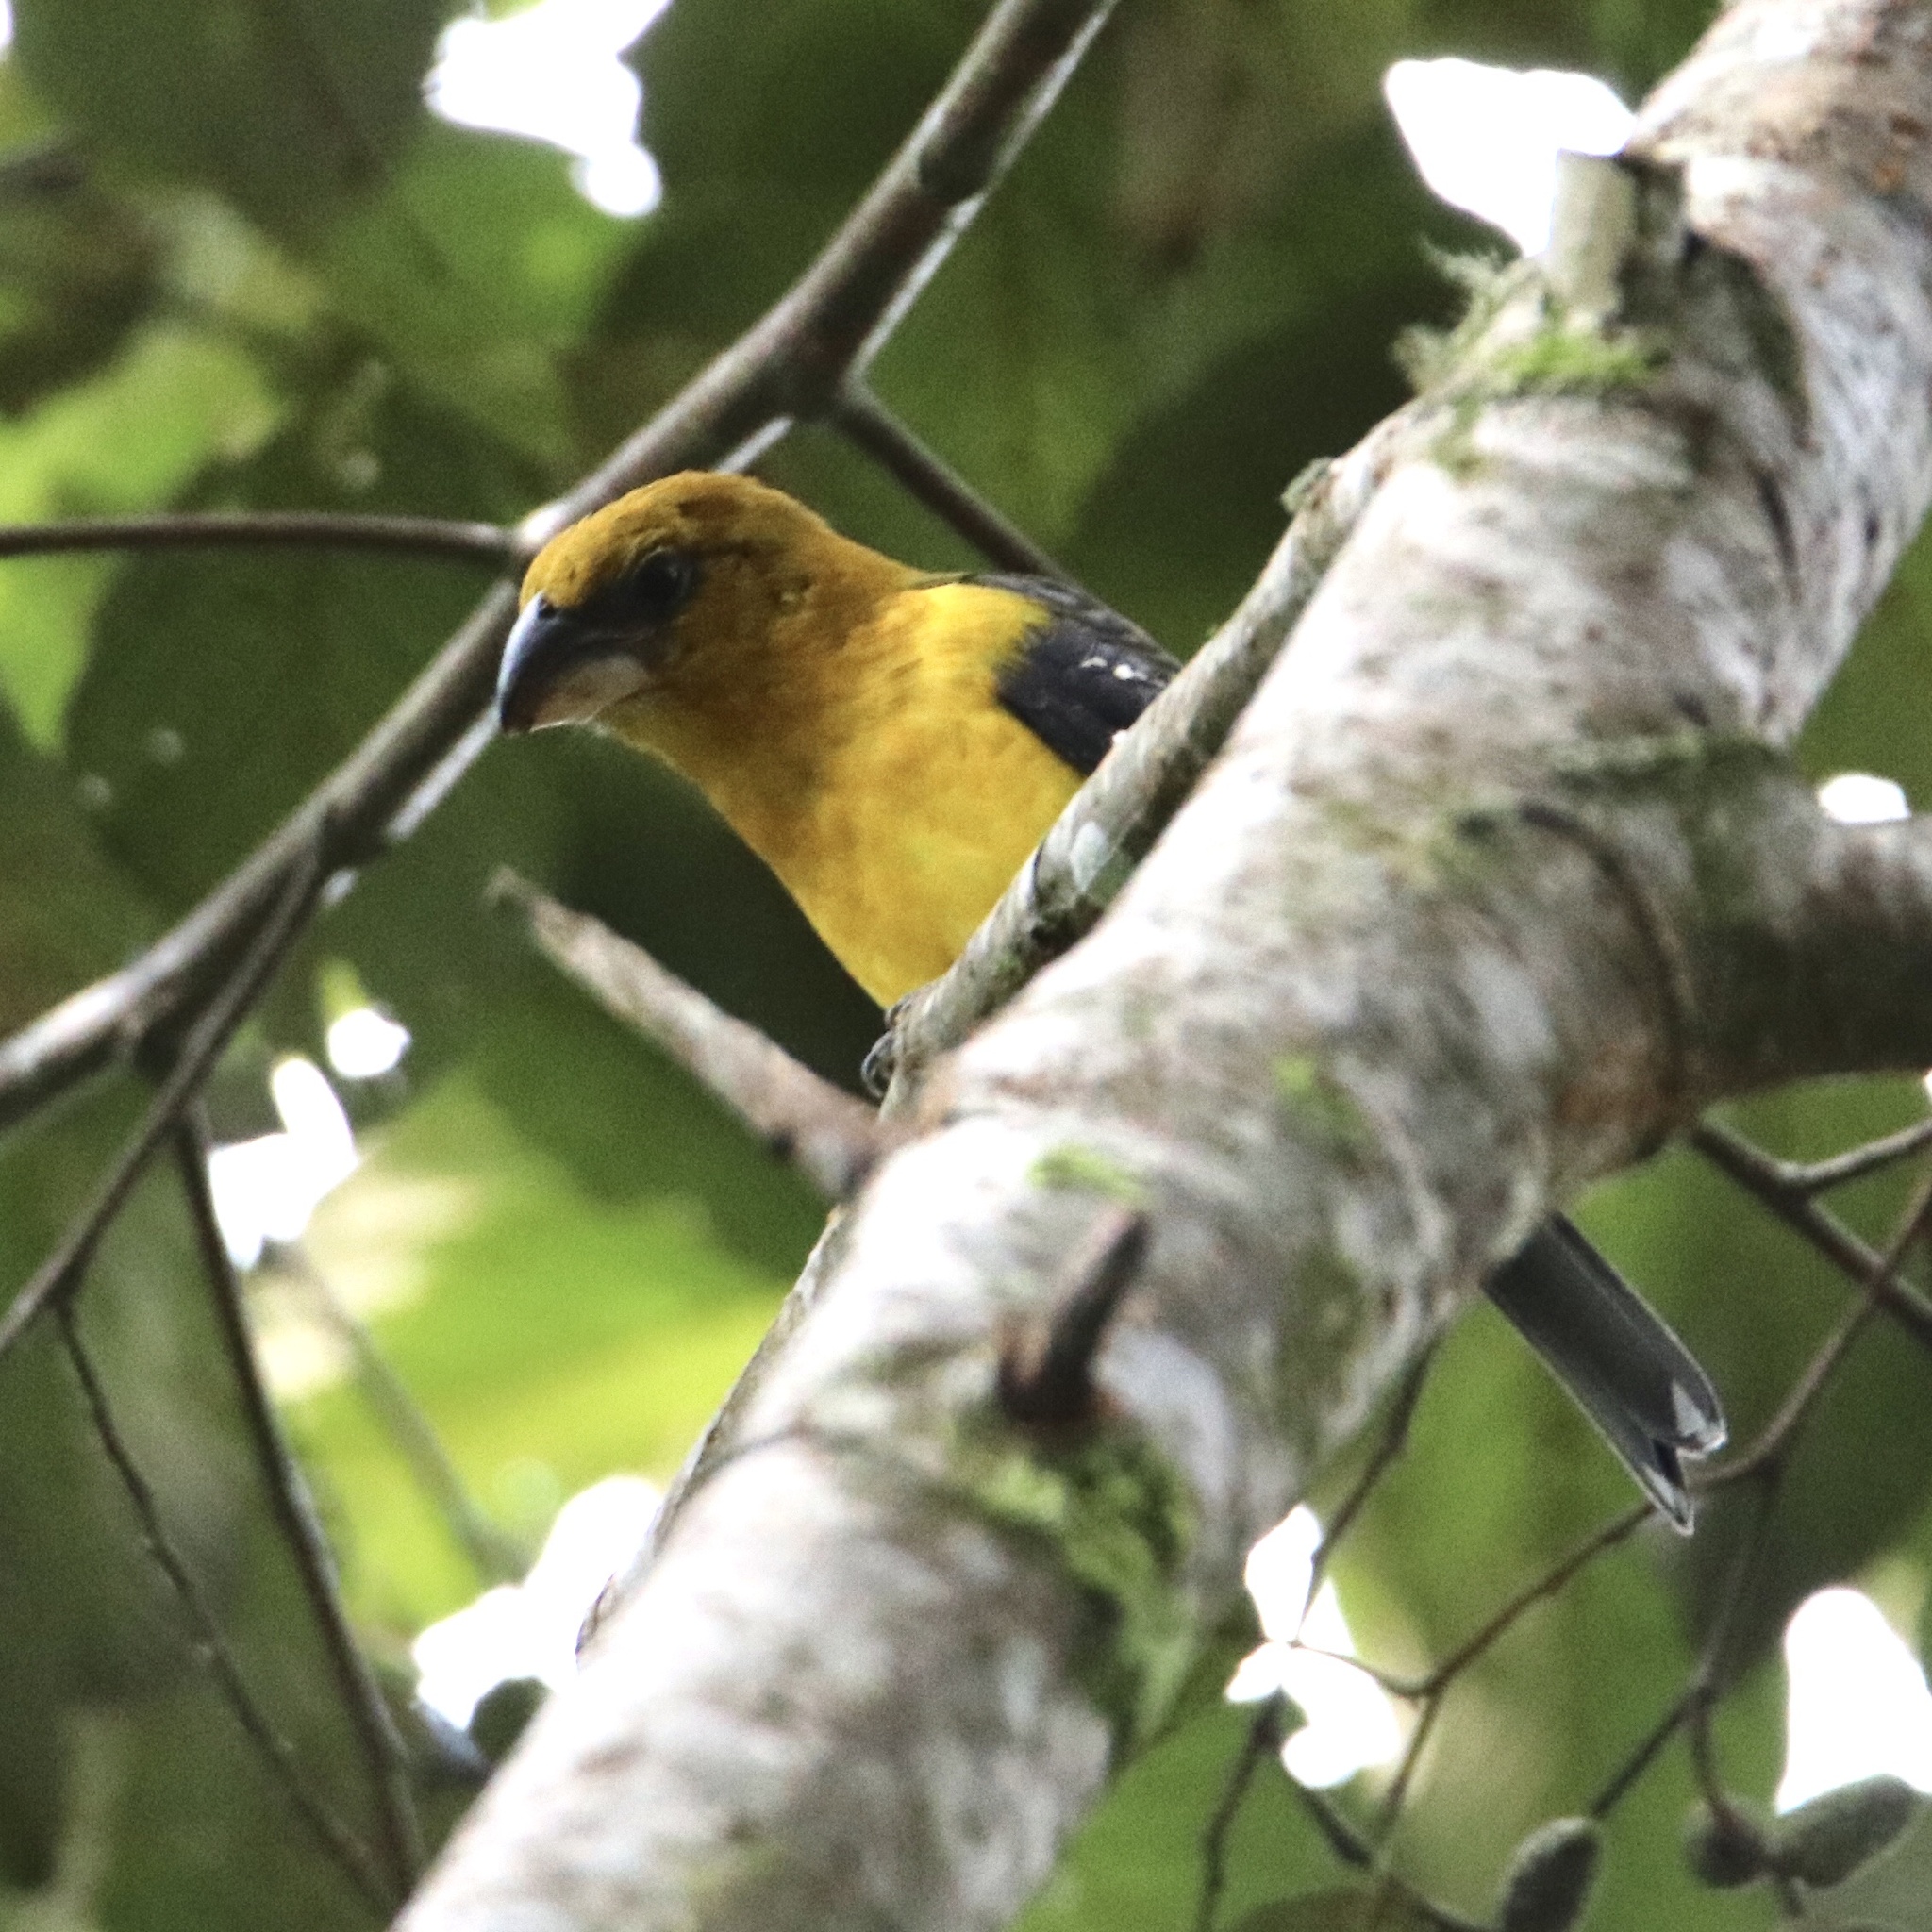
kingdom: Animalia
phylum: Chordata
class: Aves
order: Passeriformes
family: Cardinalidae
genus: Pheucticus
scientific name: Pheucticus tibialis
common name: Black-thighed grosbeak
